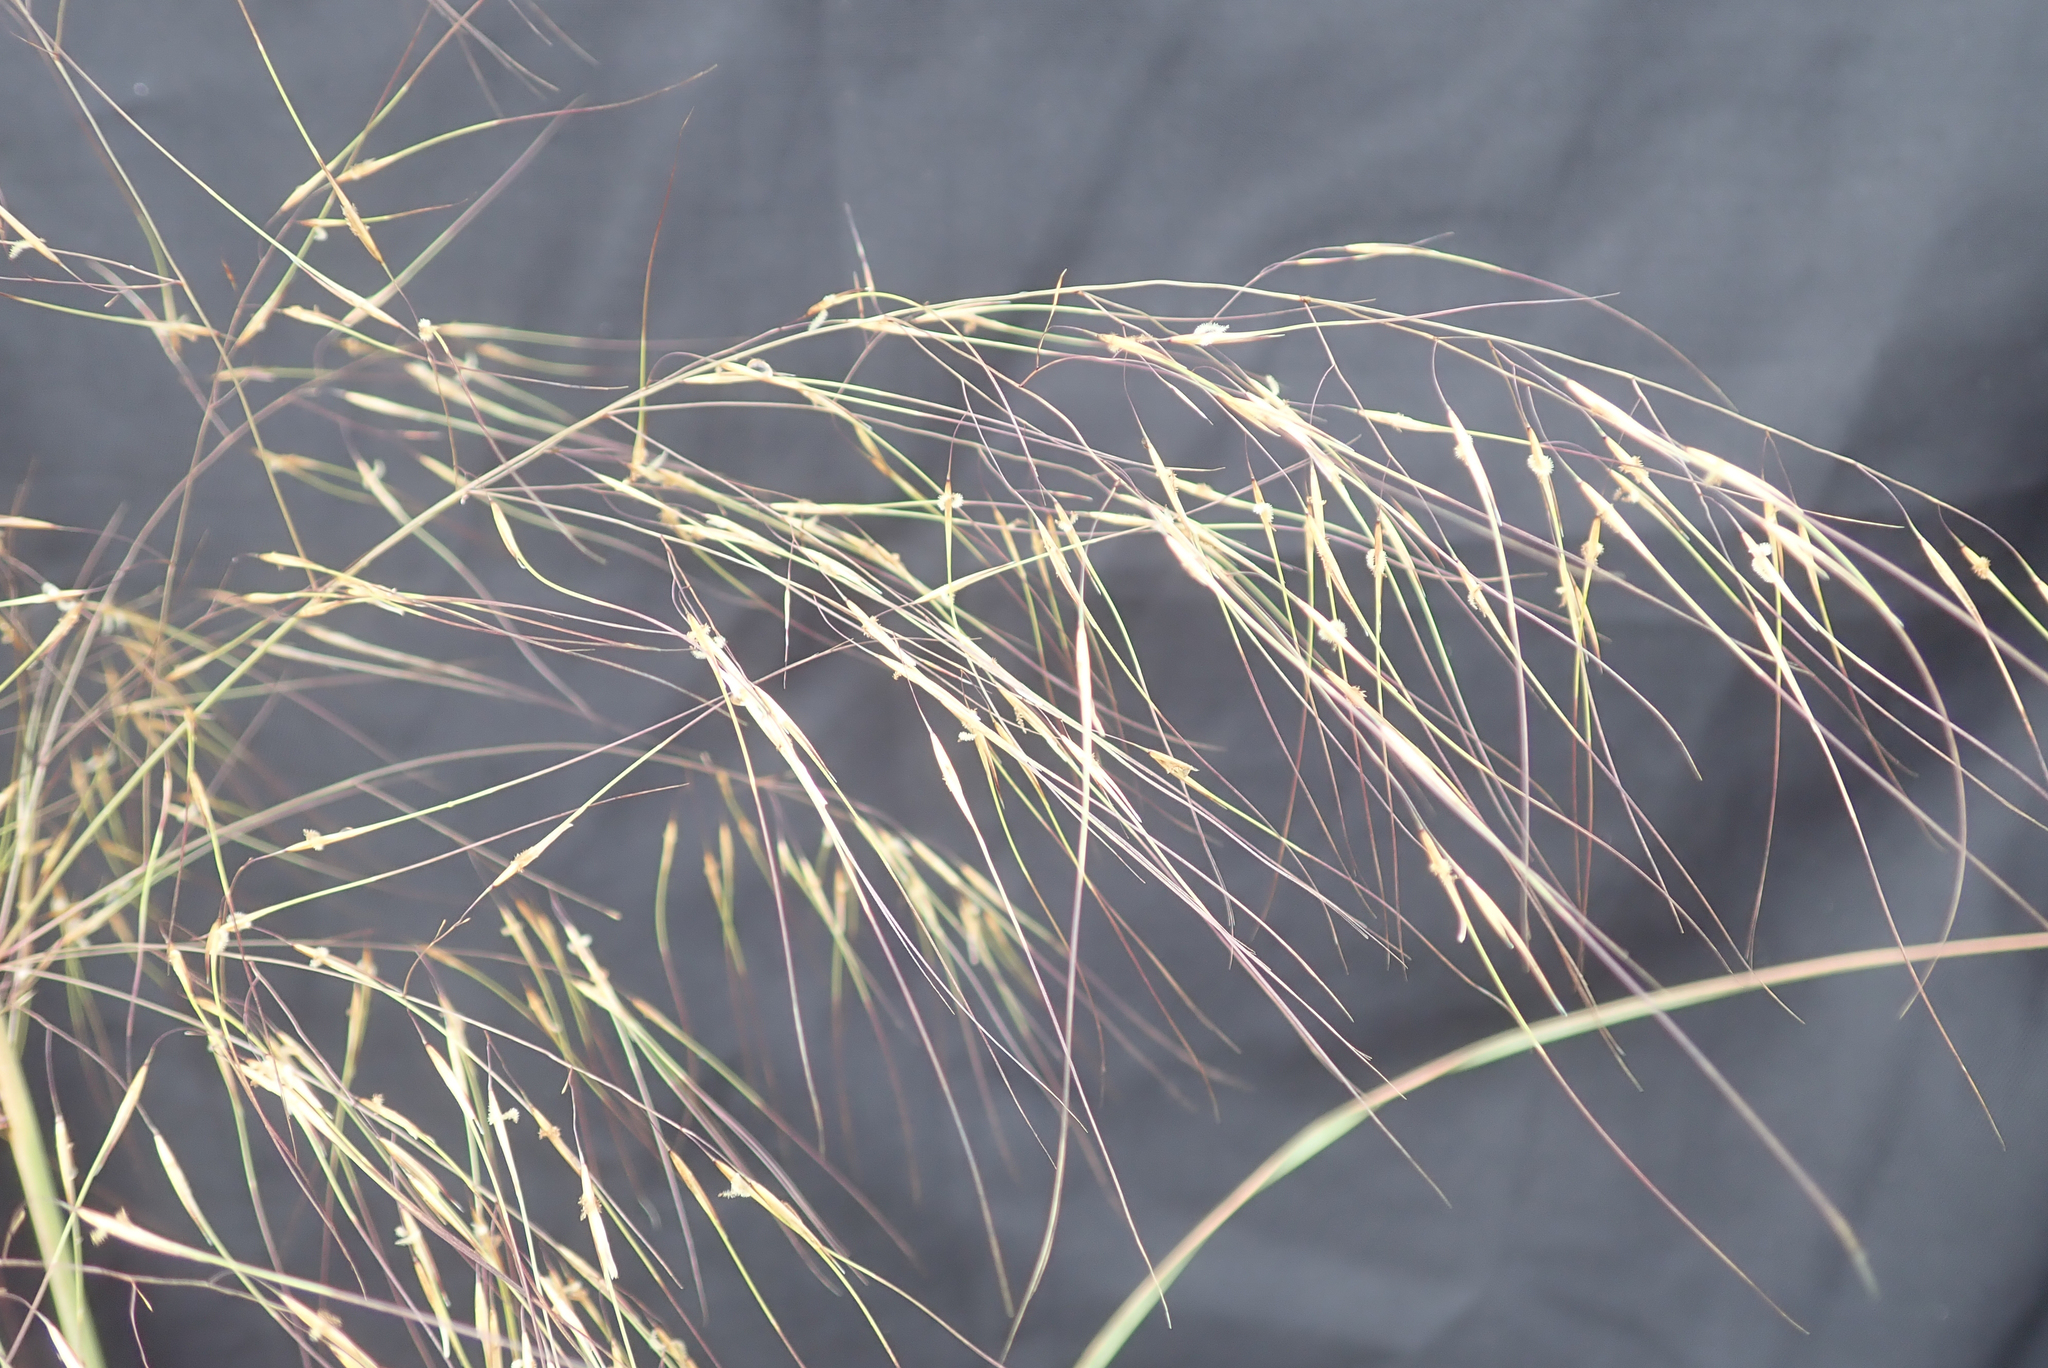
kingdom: Plantae
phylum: Tracheophyta
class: Liliopsida
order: Poales
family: Poaceae
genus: Aristida
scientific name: Aristida meridionalis
